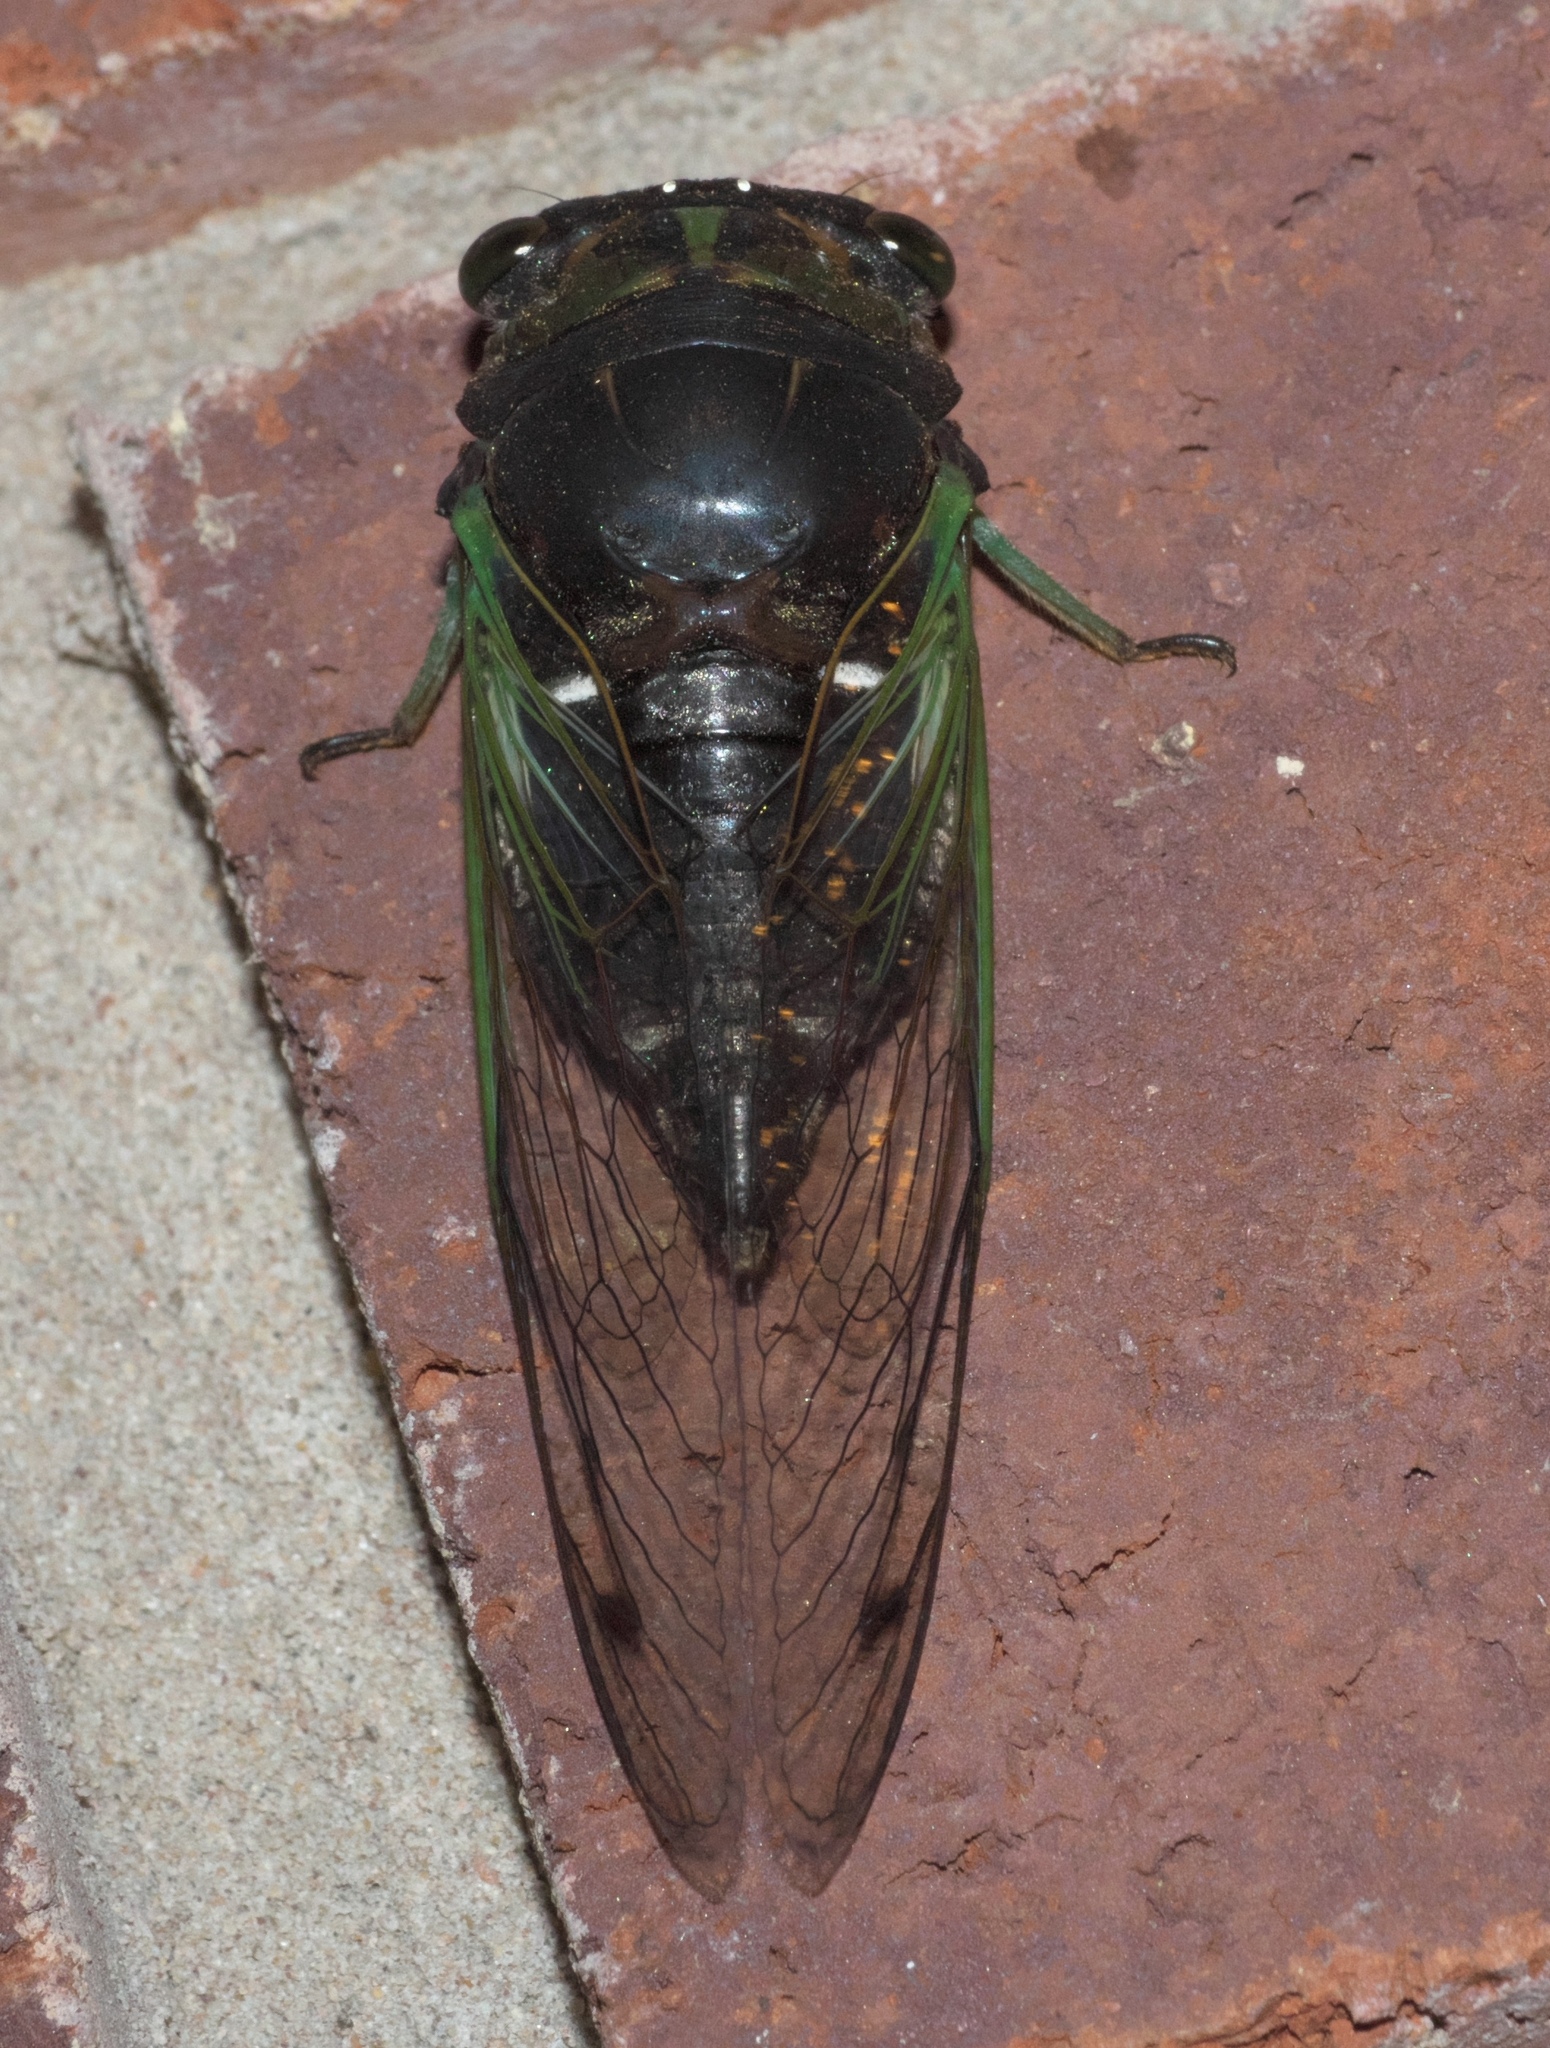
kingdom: Animalia
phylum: Arthropoda
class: Insecta
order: Hemiptera
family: Cicadidae
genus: Neotibicen
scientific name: Neotibicen tibicen
